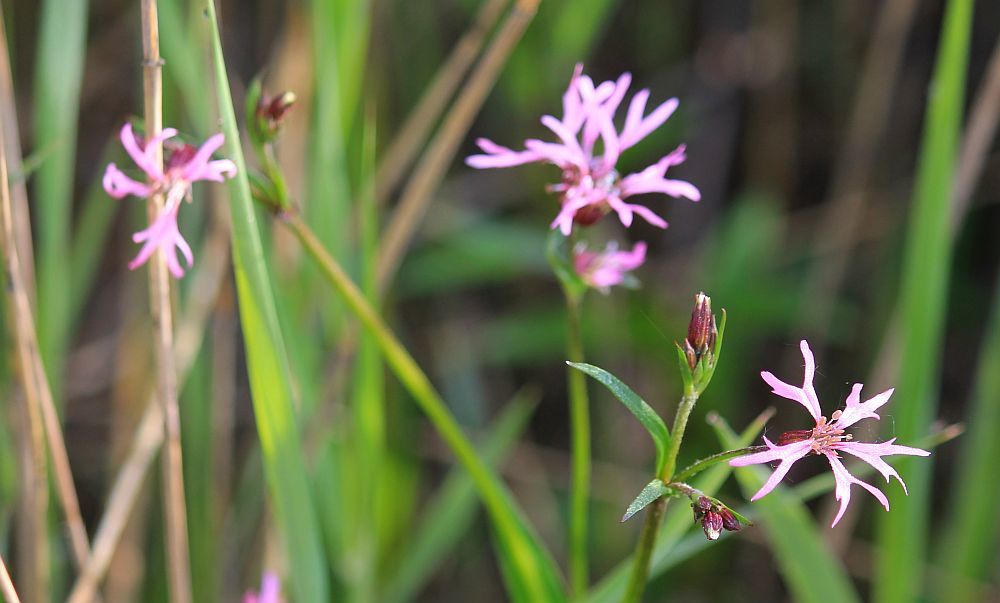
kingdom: Plantae
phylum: Tracheophyta
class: Magnoliopsida
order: Caryophyllales
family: Caryophyllaceae
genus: Silene
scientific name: Silene flos-cuculi
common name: Ragged-robin
